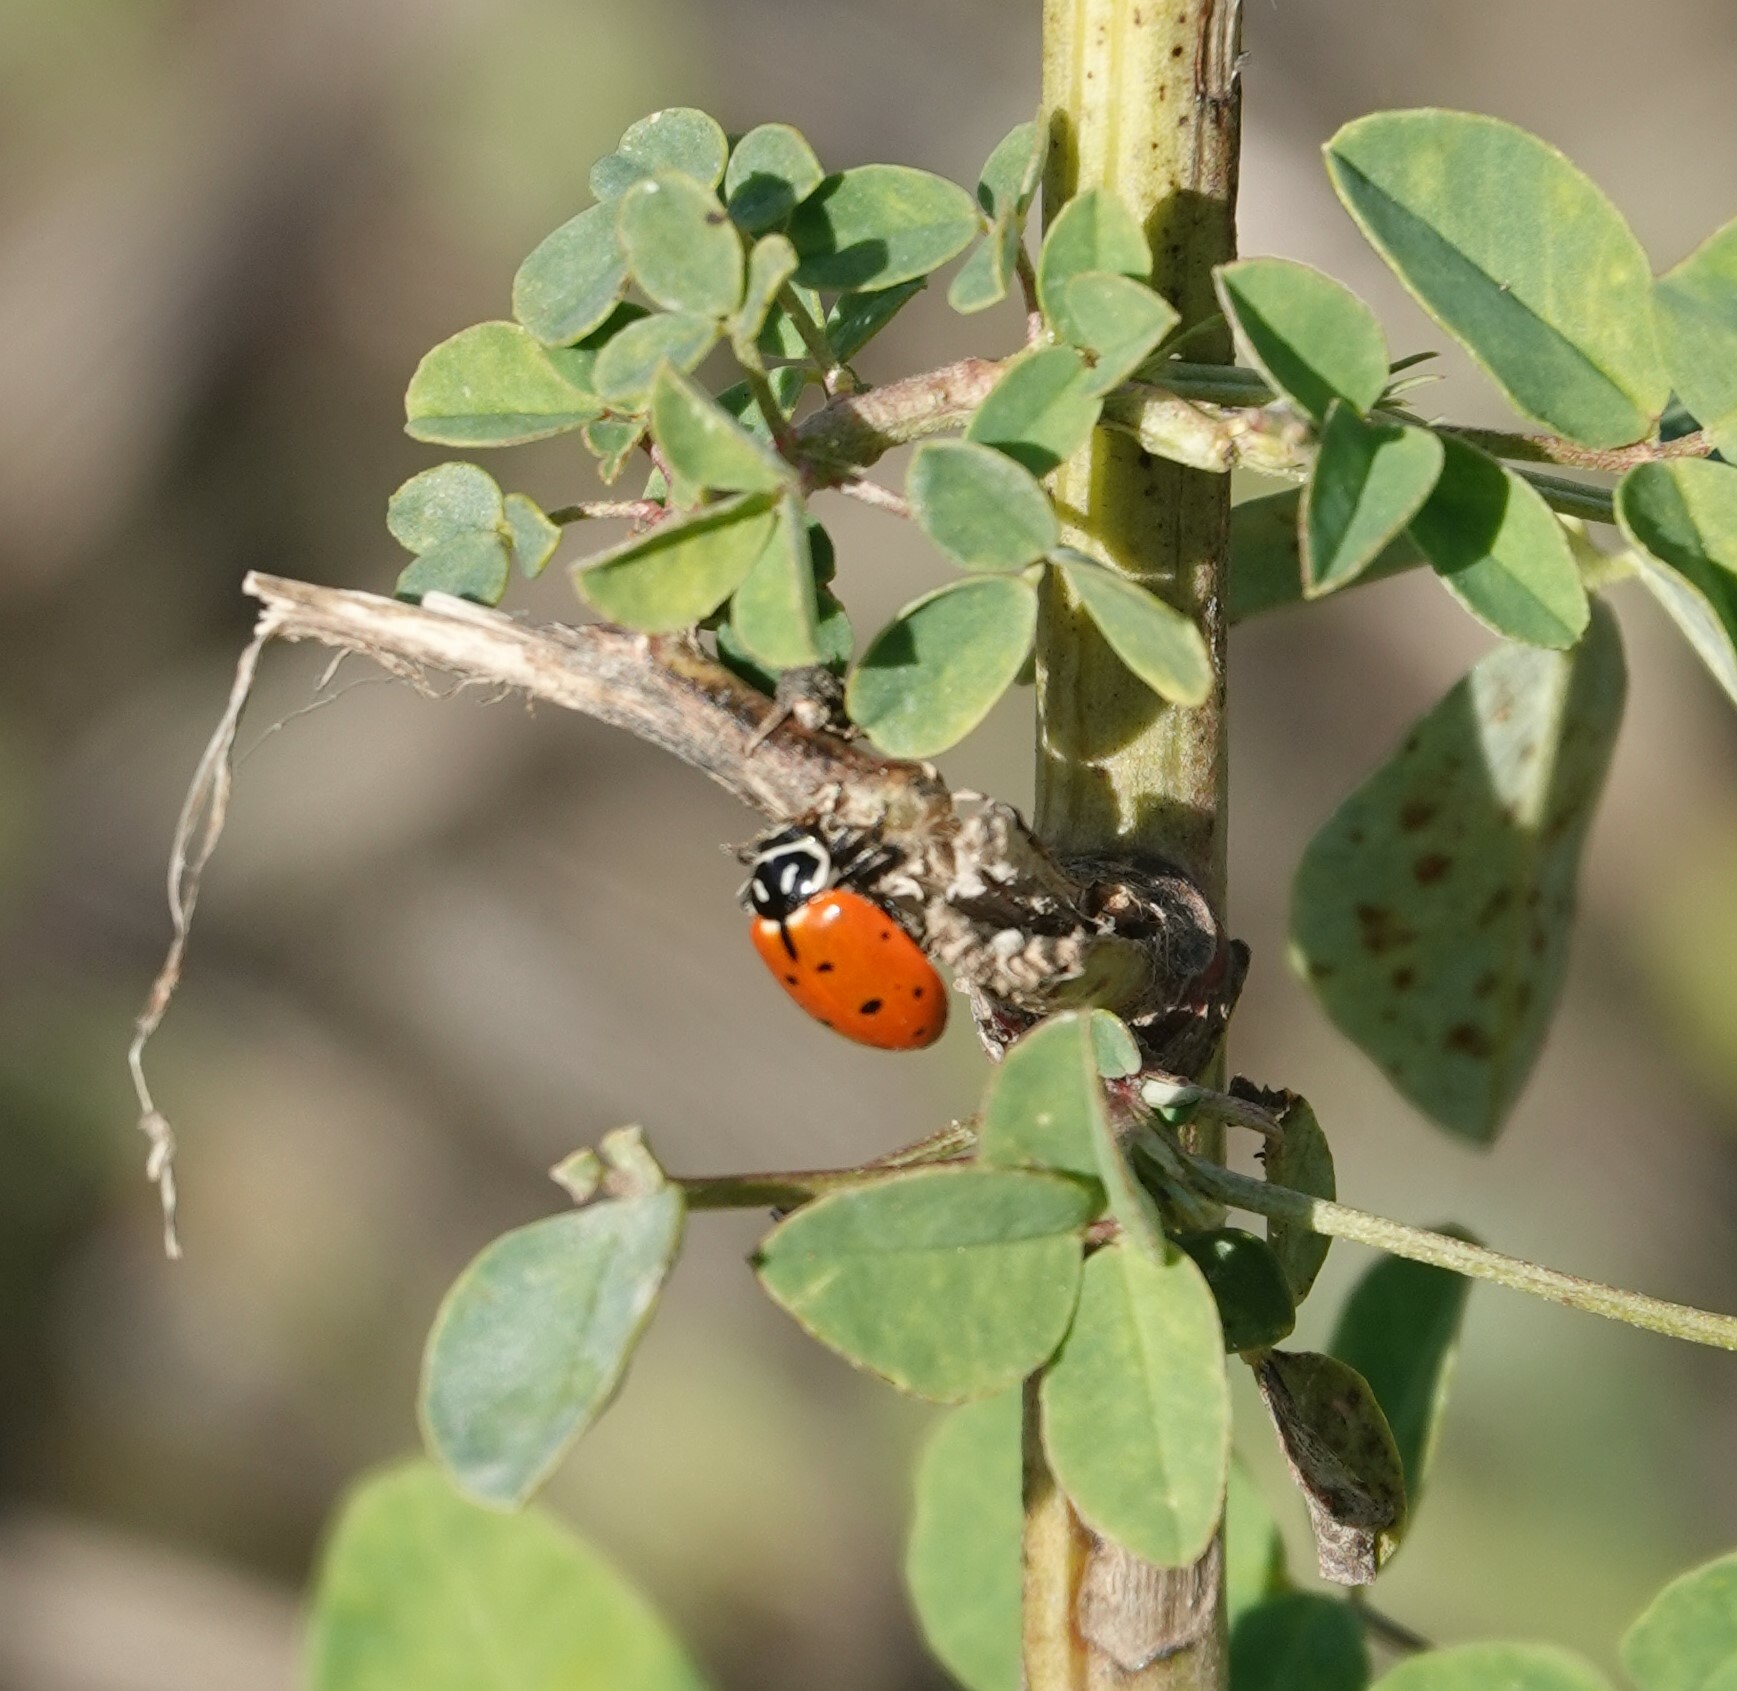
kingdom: Animalia
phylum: Arthropoda
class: Insecta
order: Coleoptera
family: Coccinellidae
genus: Hippodamia
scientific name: Hippodamia convergens
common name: Convergent lady beetle
